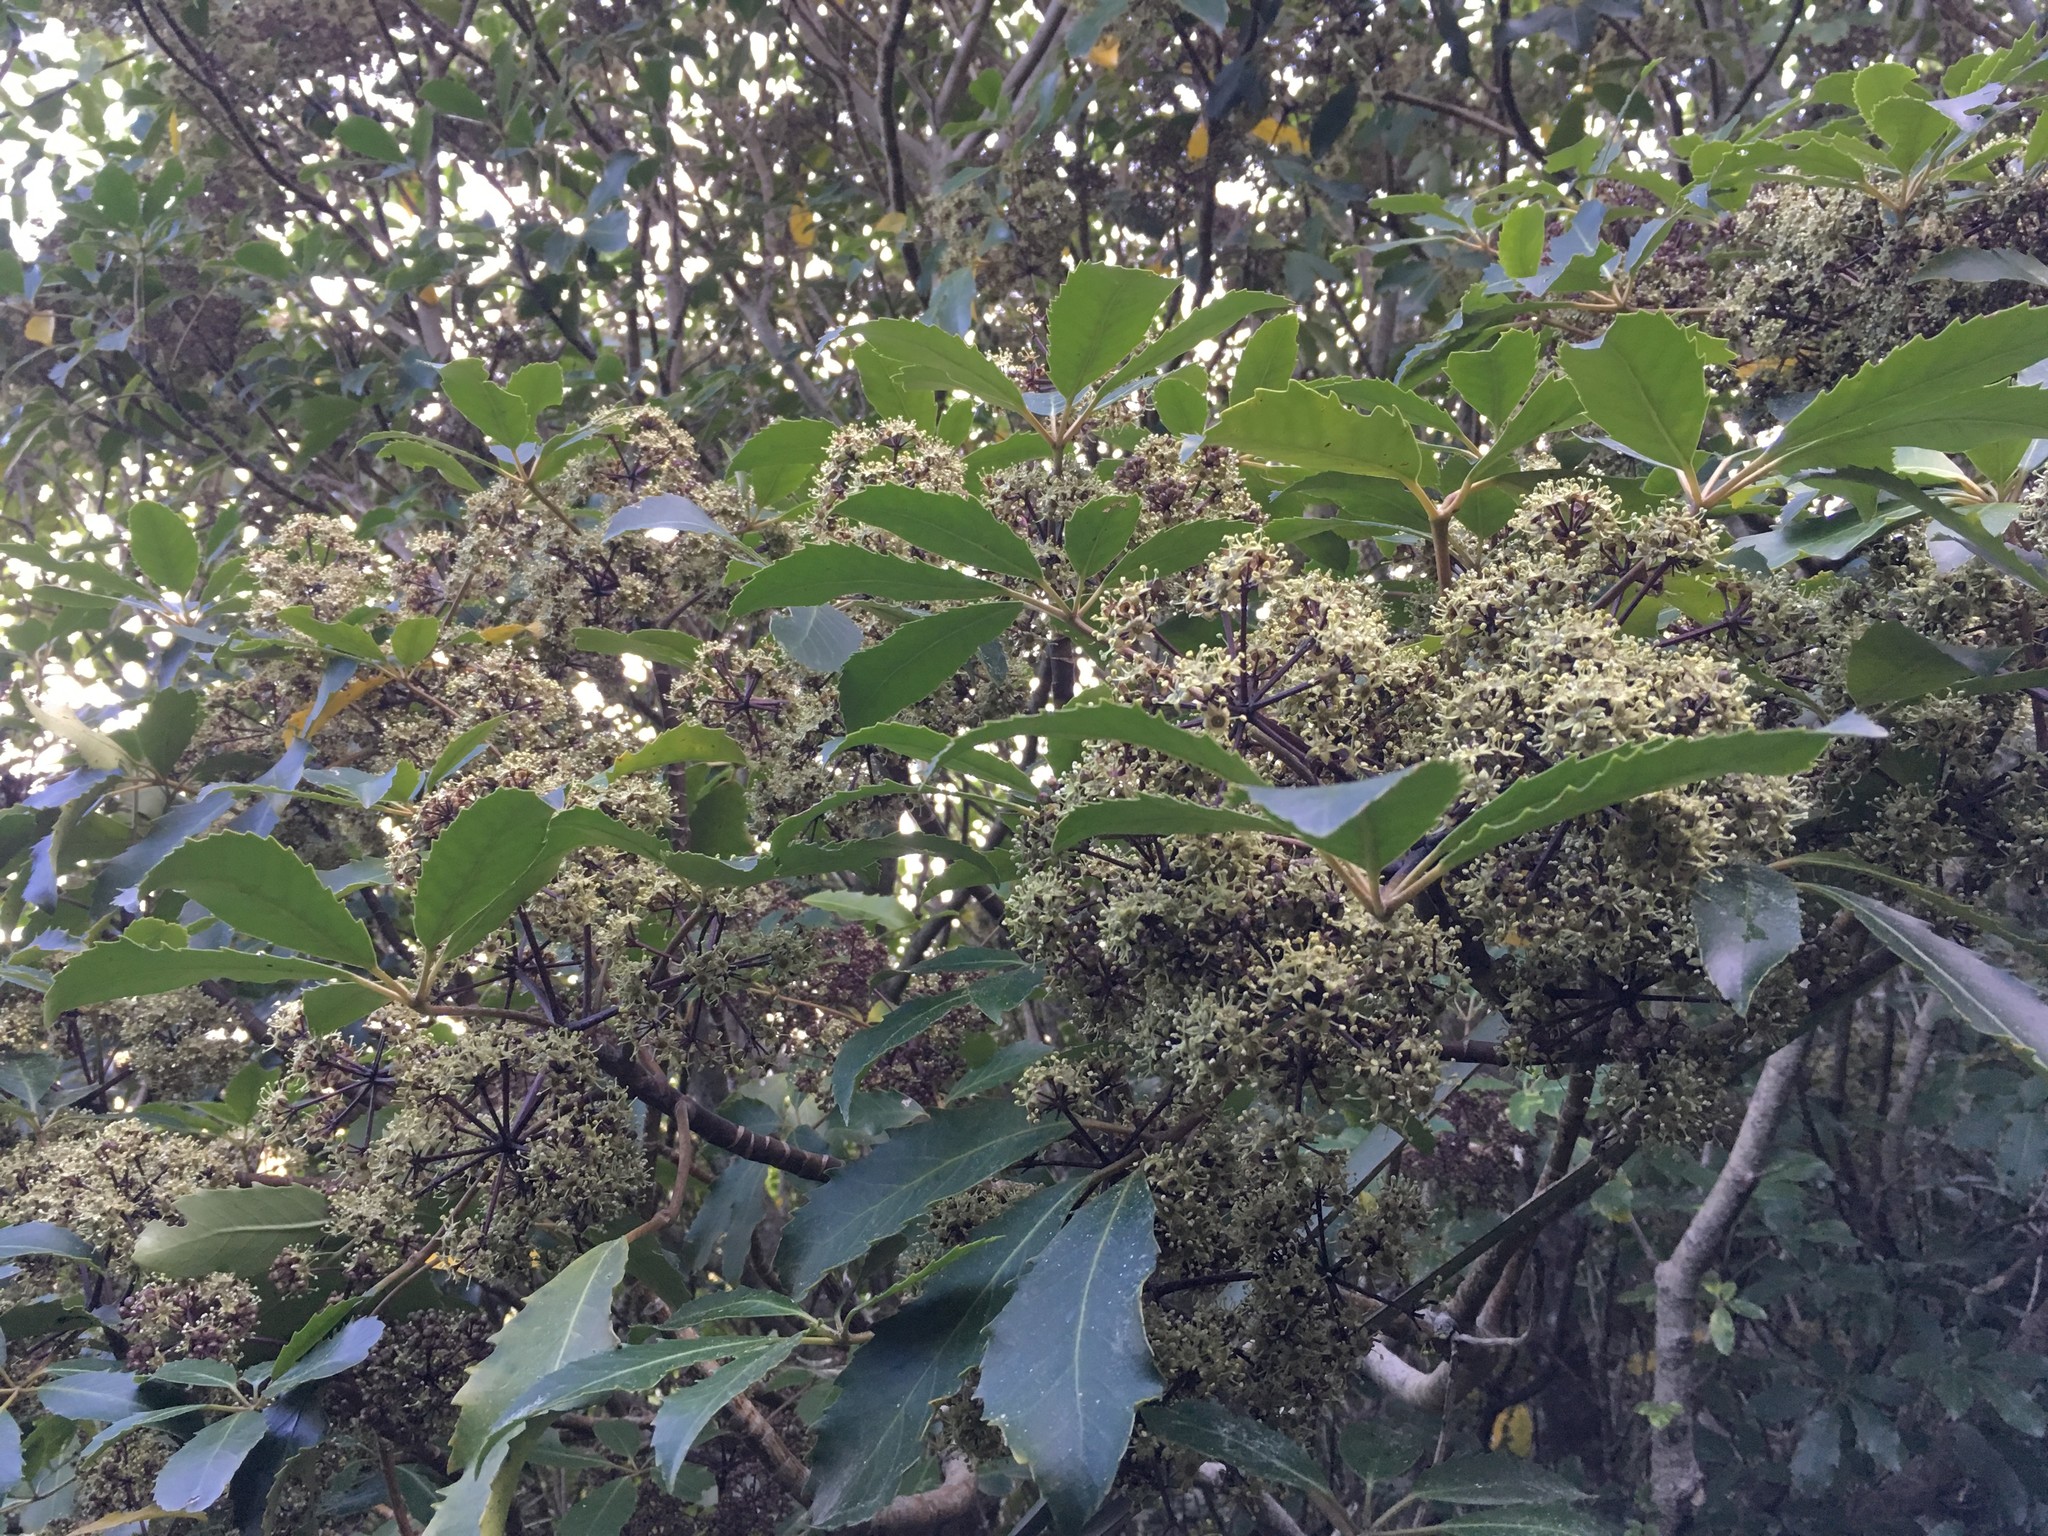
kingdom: Plantae
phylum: Tracheophyta
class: Magnoliopsida
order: Apiales
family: Araliaceae
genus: Neopanax
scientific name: Neopanax arboreus
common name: Five-fingers
